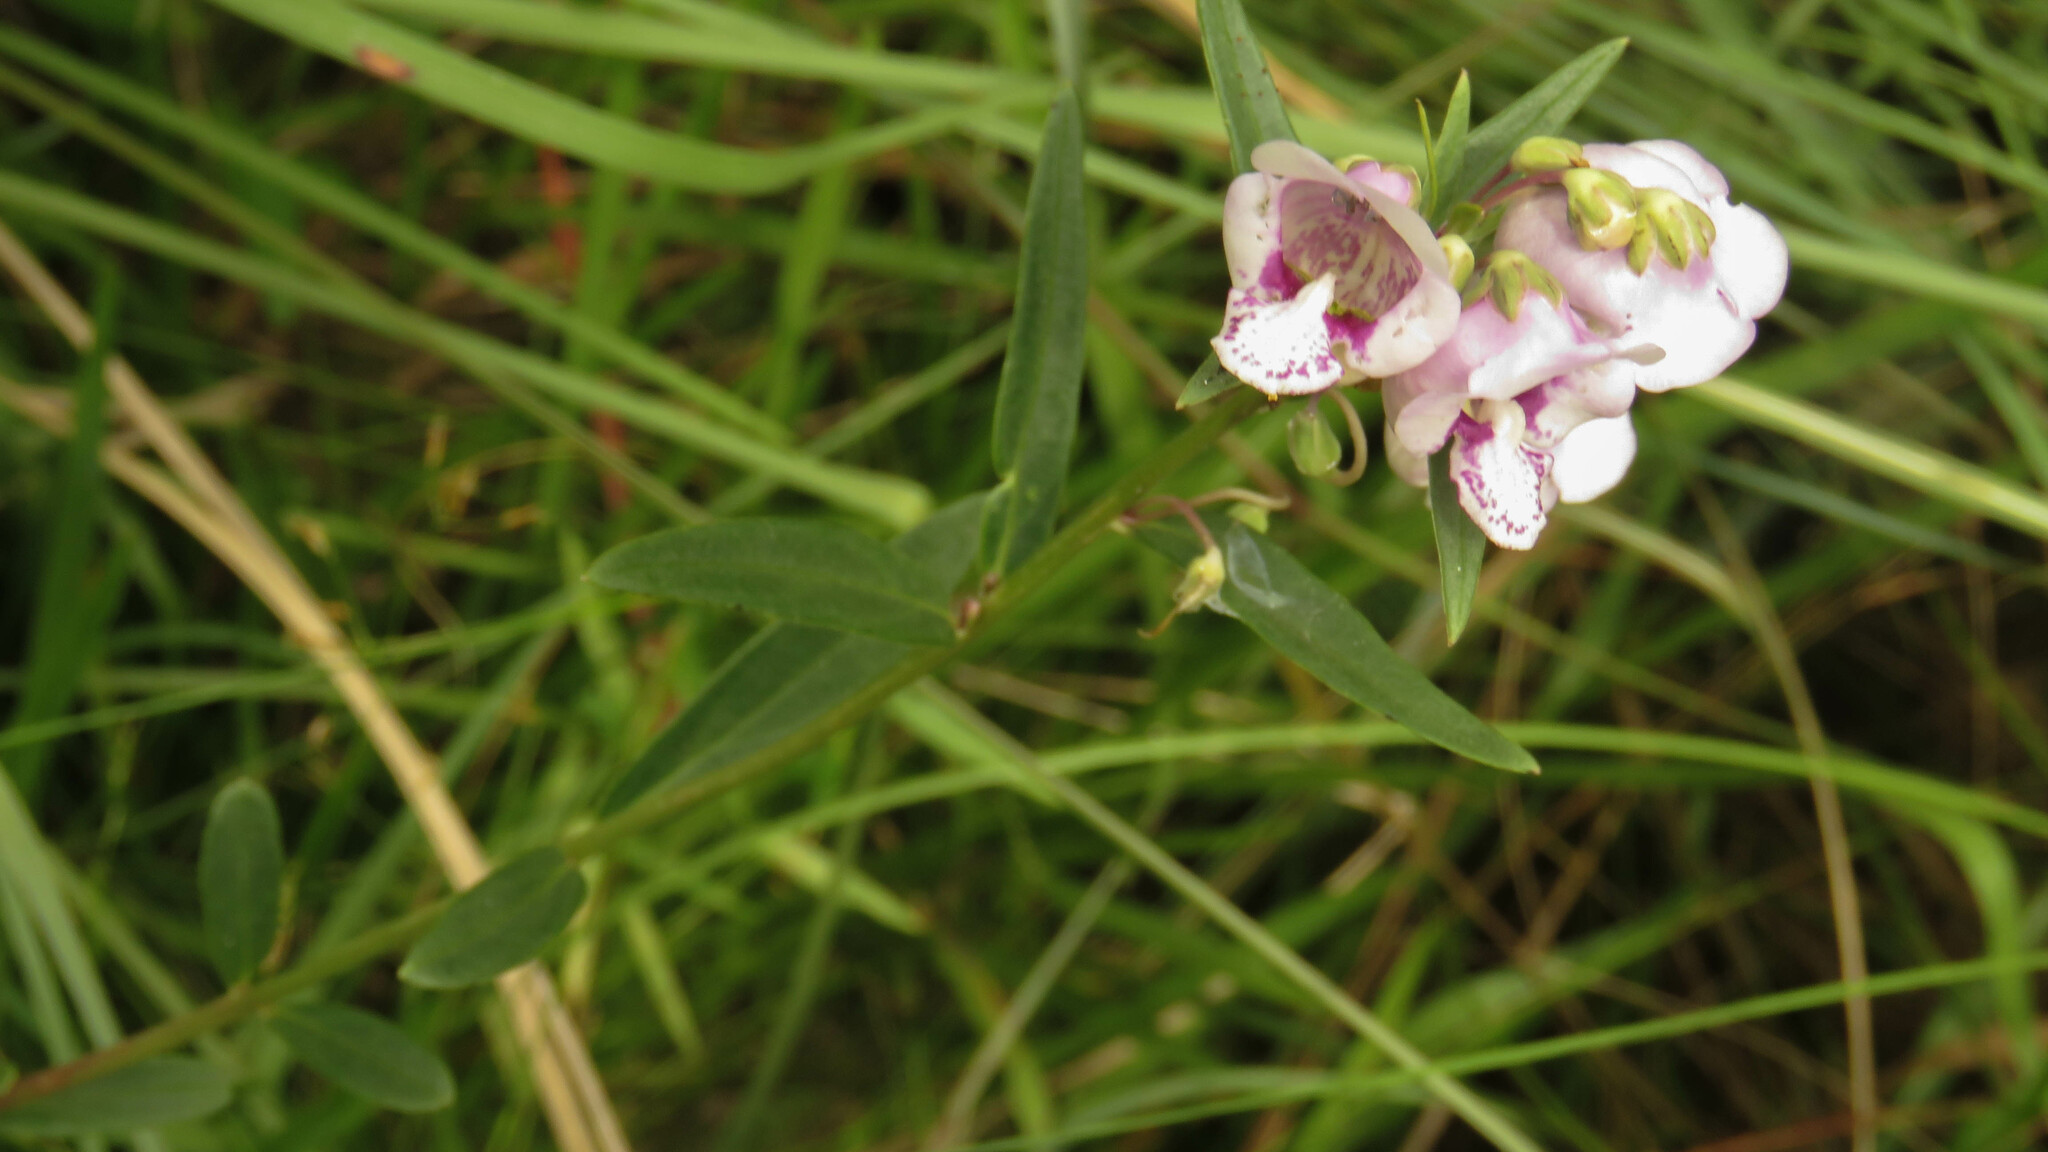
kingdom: Plantae
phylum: Tracheophyta
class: Magnoliopsida
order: Lamiales
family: Plantaginaceae
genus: Angelonia
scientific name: Angelonia integerrima
